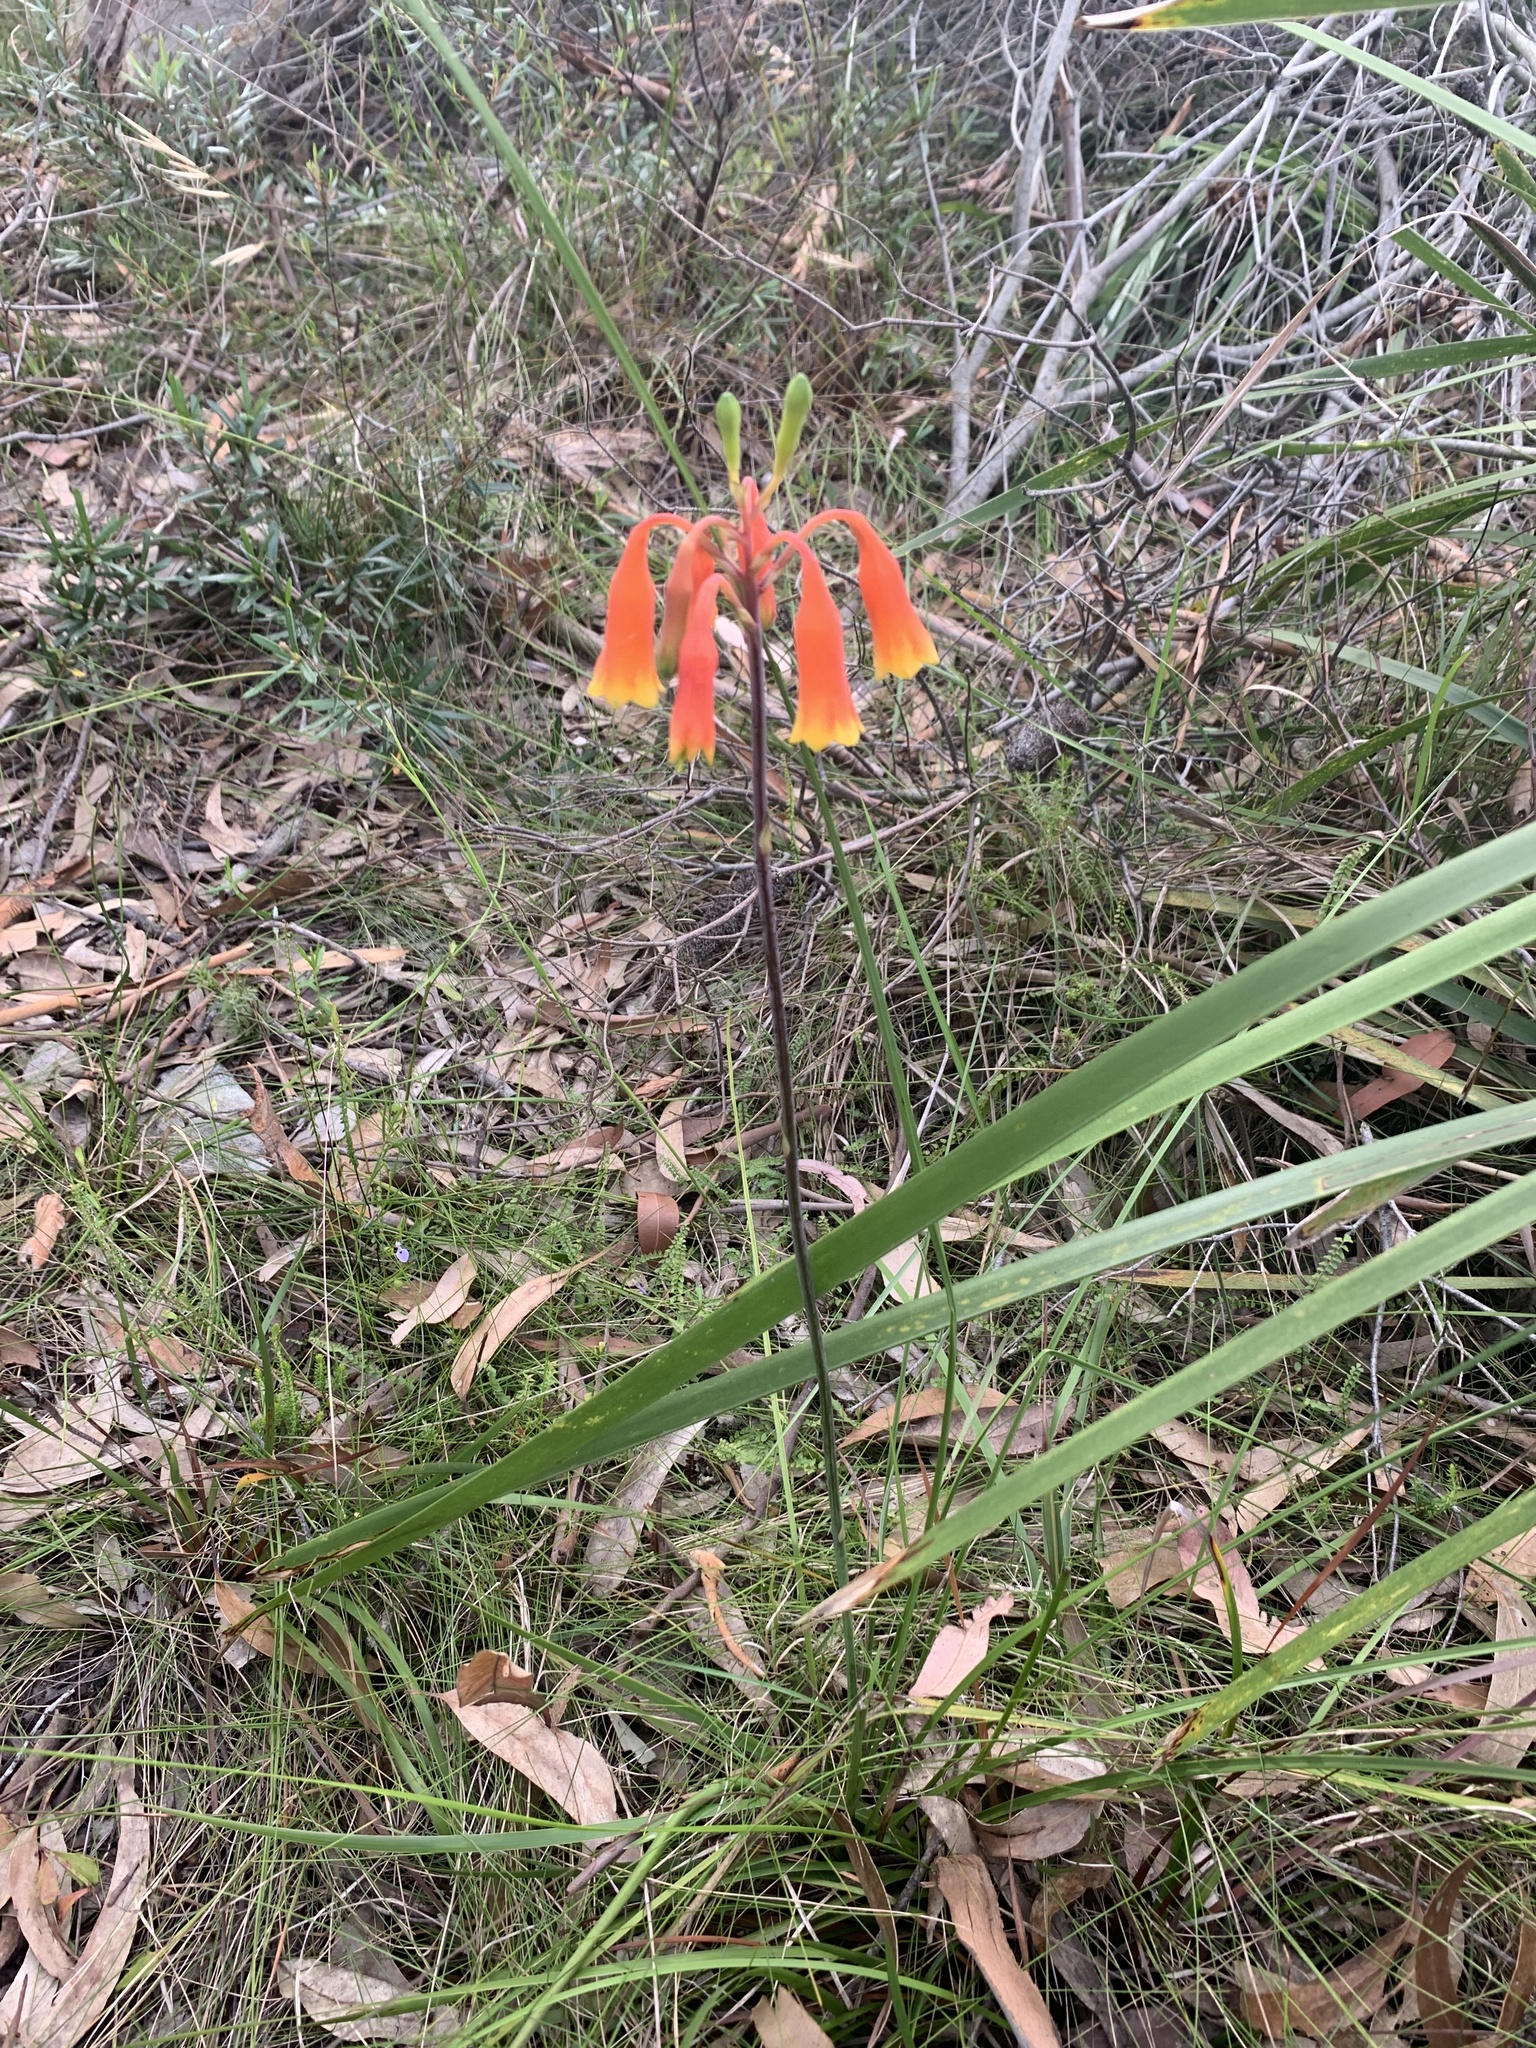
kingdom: Plantae
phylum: Tracheophyta
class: Liliopsida
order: Asparagales
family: Blandfordiaceae
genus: Blandfordia
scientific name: Blandfordia nobilis
